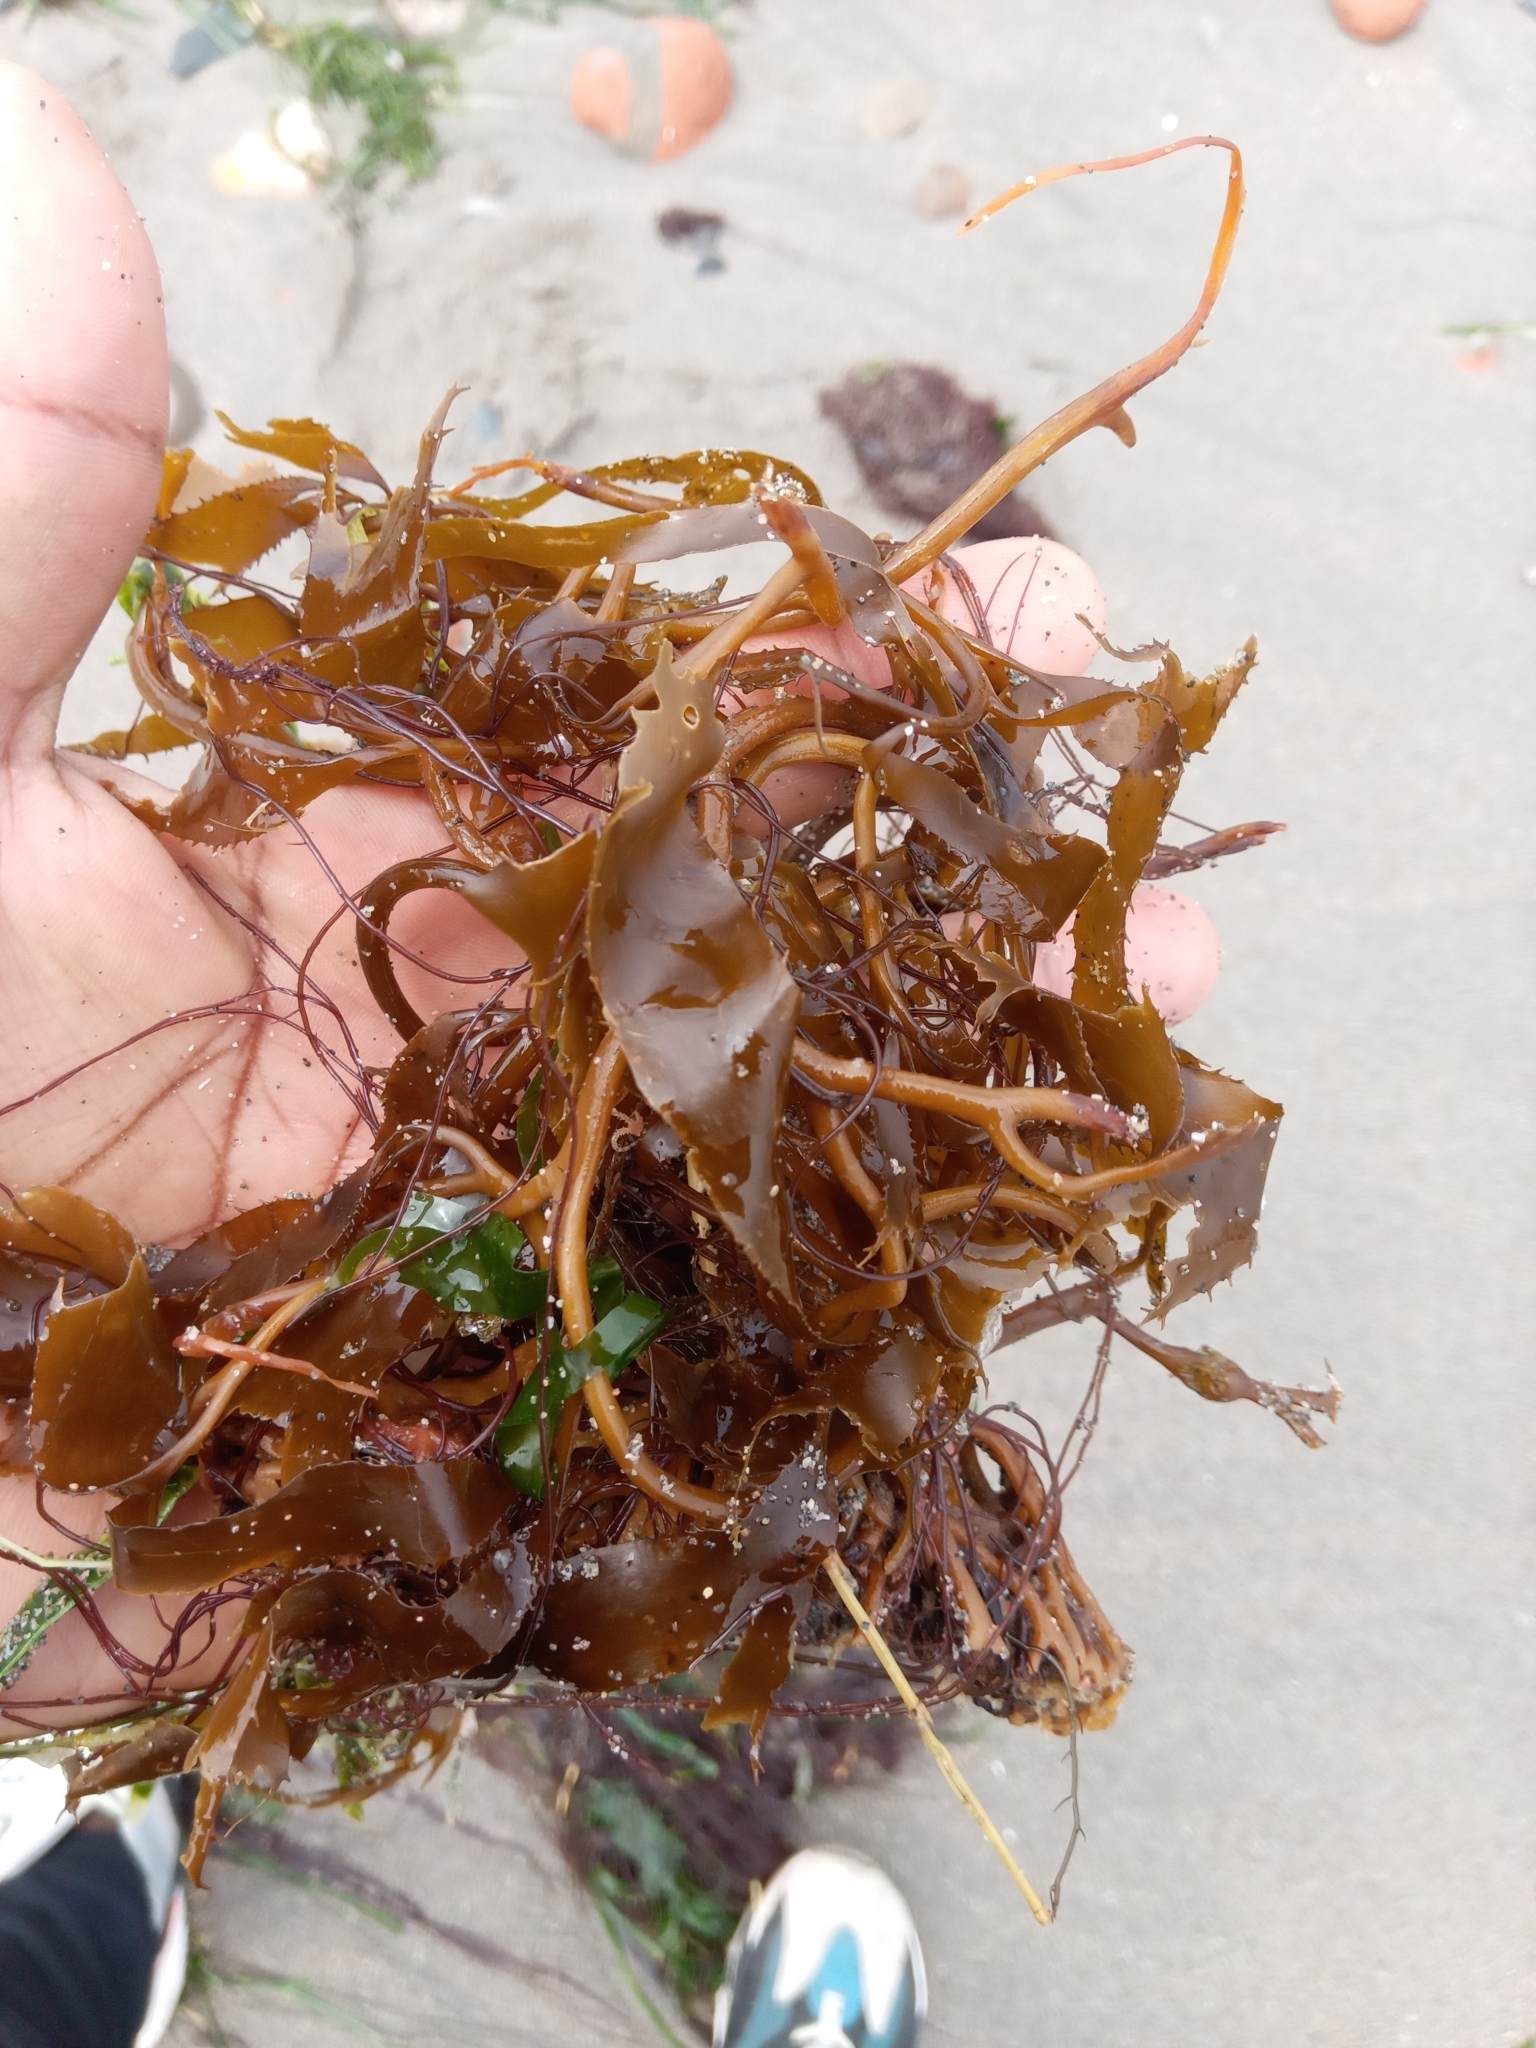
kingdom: Chromista
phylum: Ochrophyta
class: Phaeophyceae
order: Laminariales
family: Laminariaceae
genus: Macrocystis
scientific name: Macrocystis pyrifera
